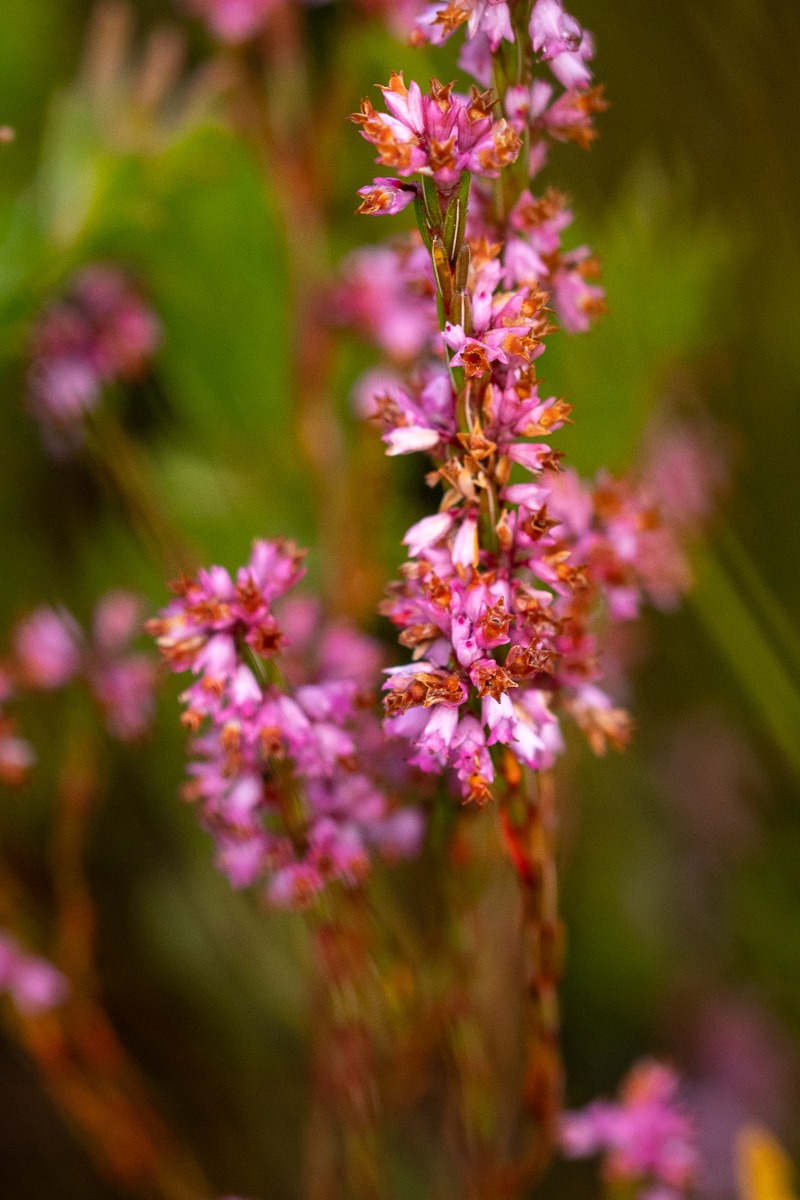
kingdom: Plantae
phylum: Tracheophyta
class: Magnoliopsida
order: Ericales
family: Ericaceae
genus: Erica
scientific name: Erica corifolia
